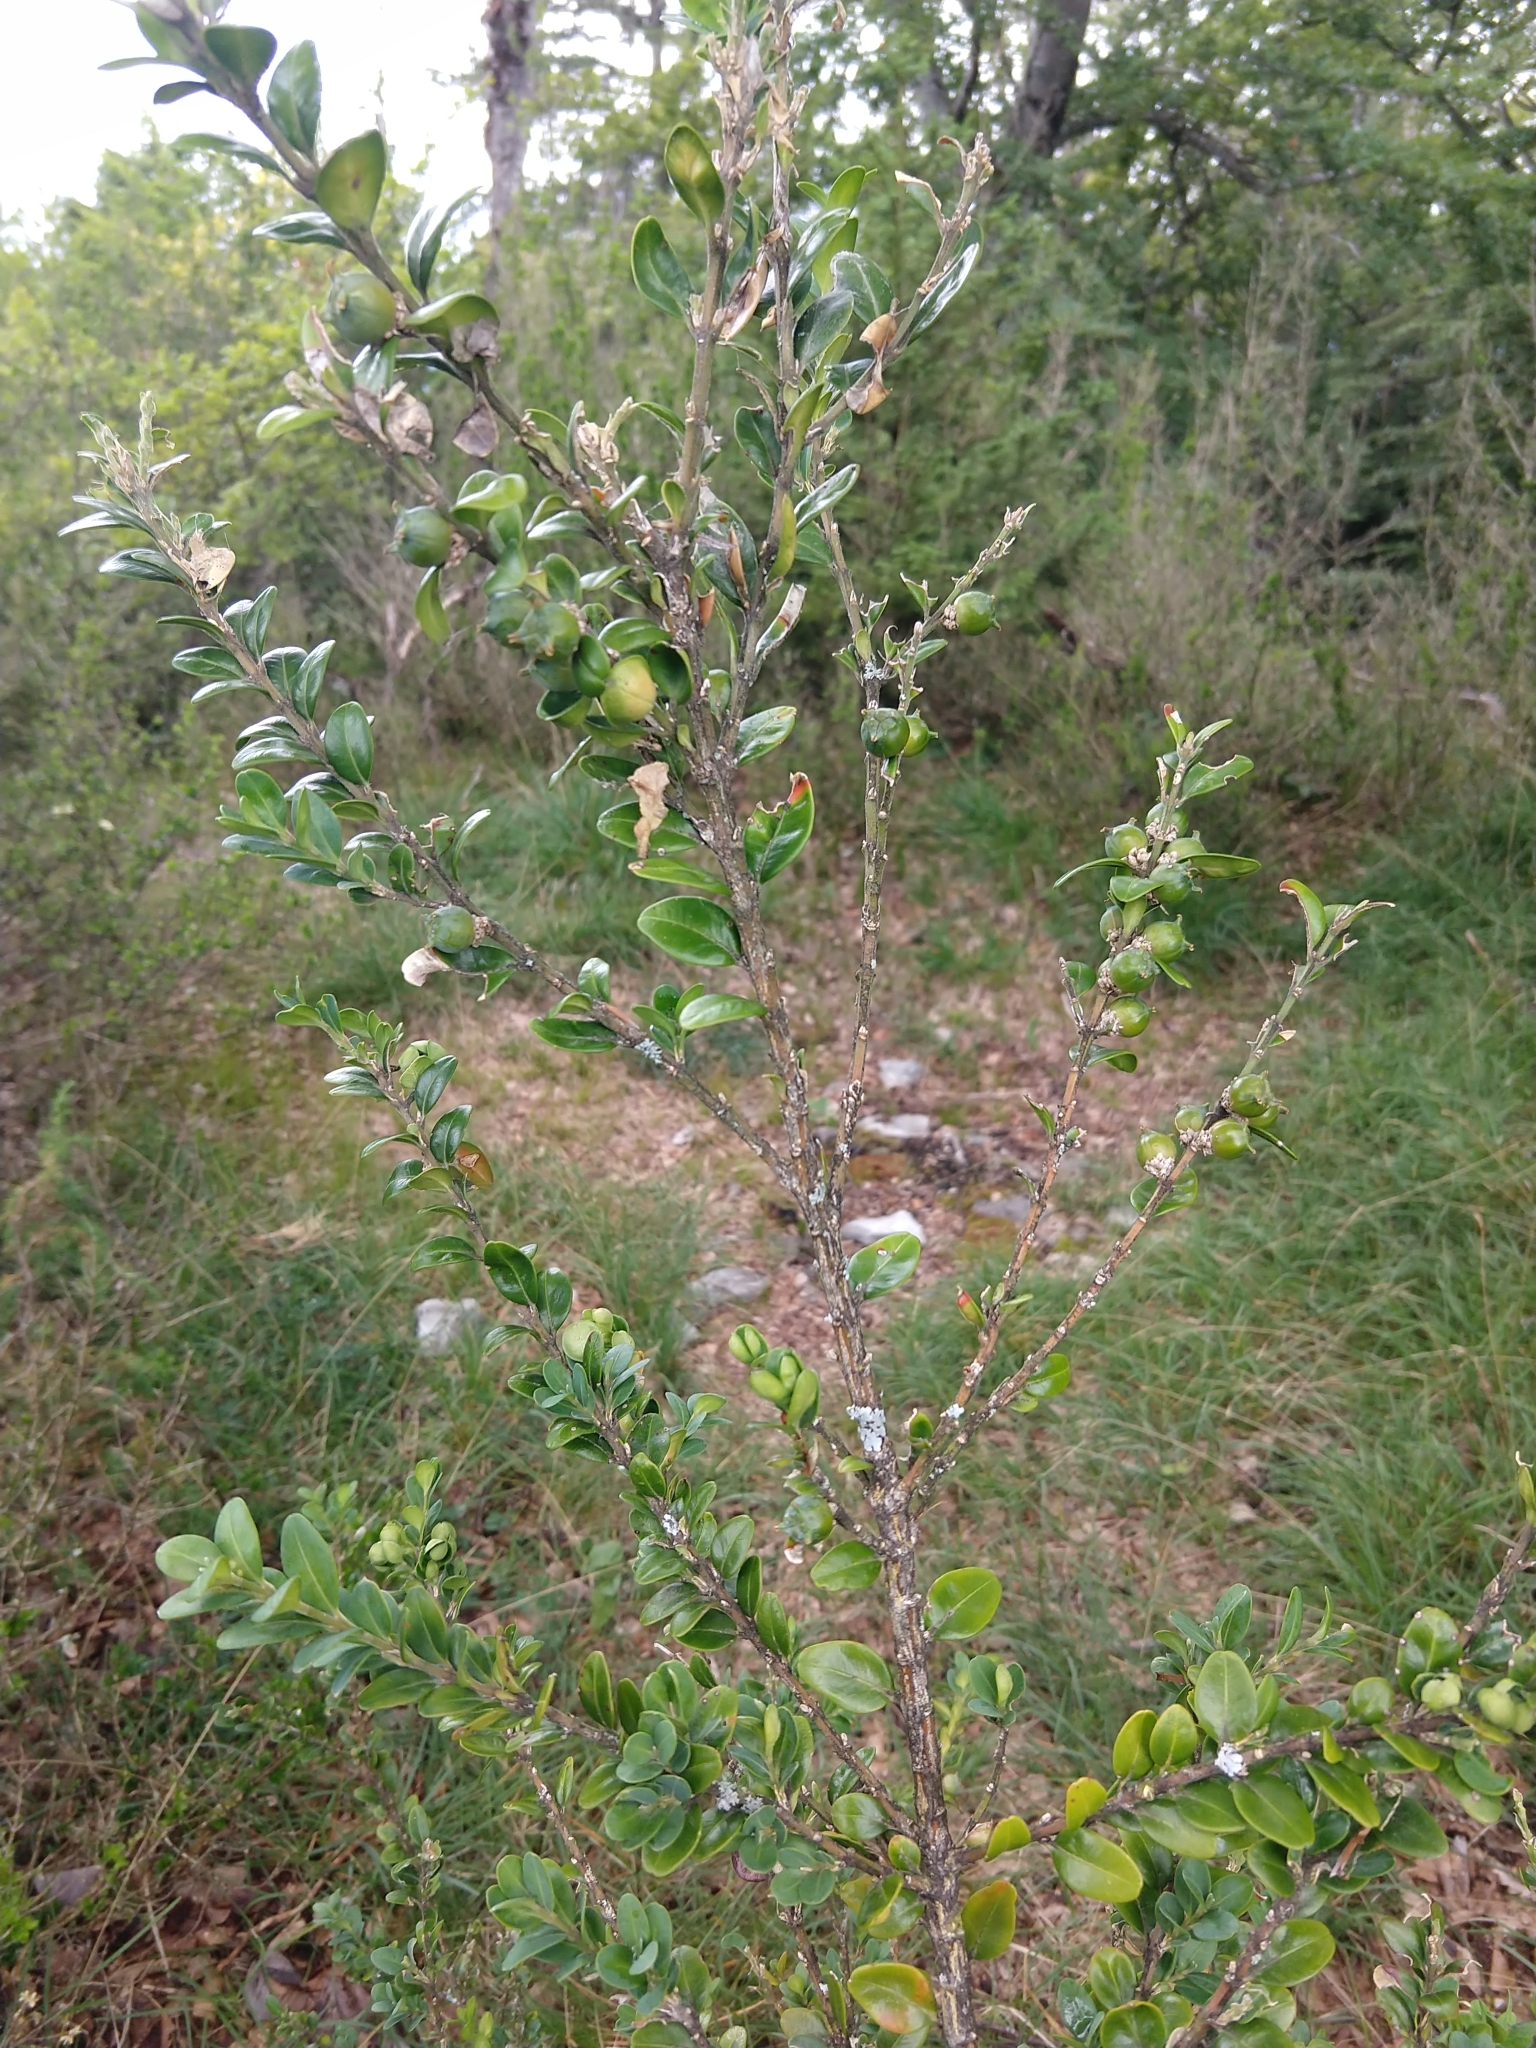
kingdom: Plantae
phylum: Tracheophyta
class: Magnoliopsida
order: Buxales
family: Buxaceae
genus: Buxus
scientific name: Buxus sempervirens
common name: Box
